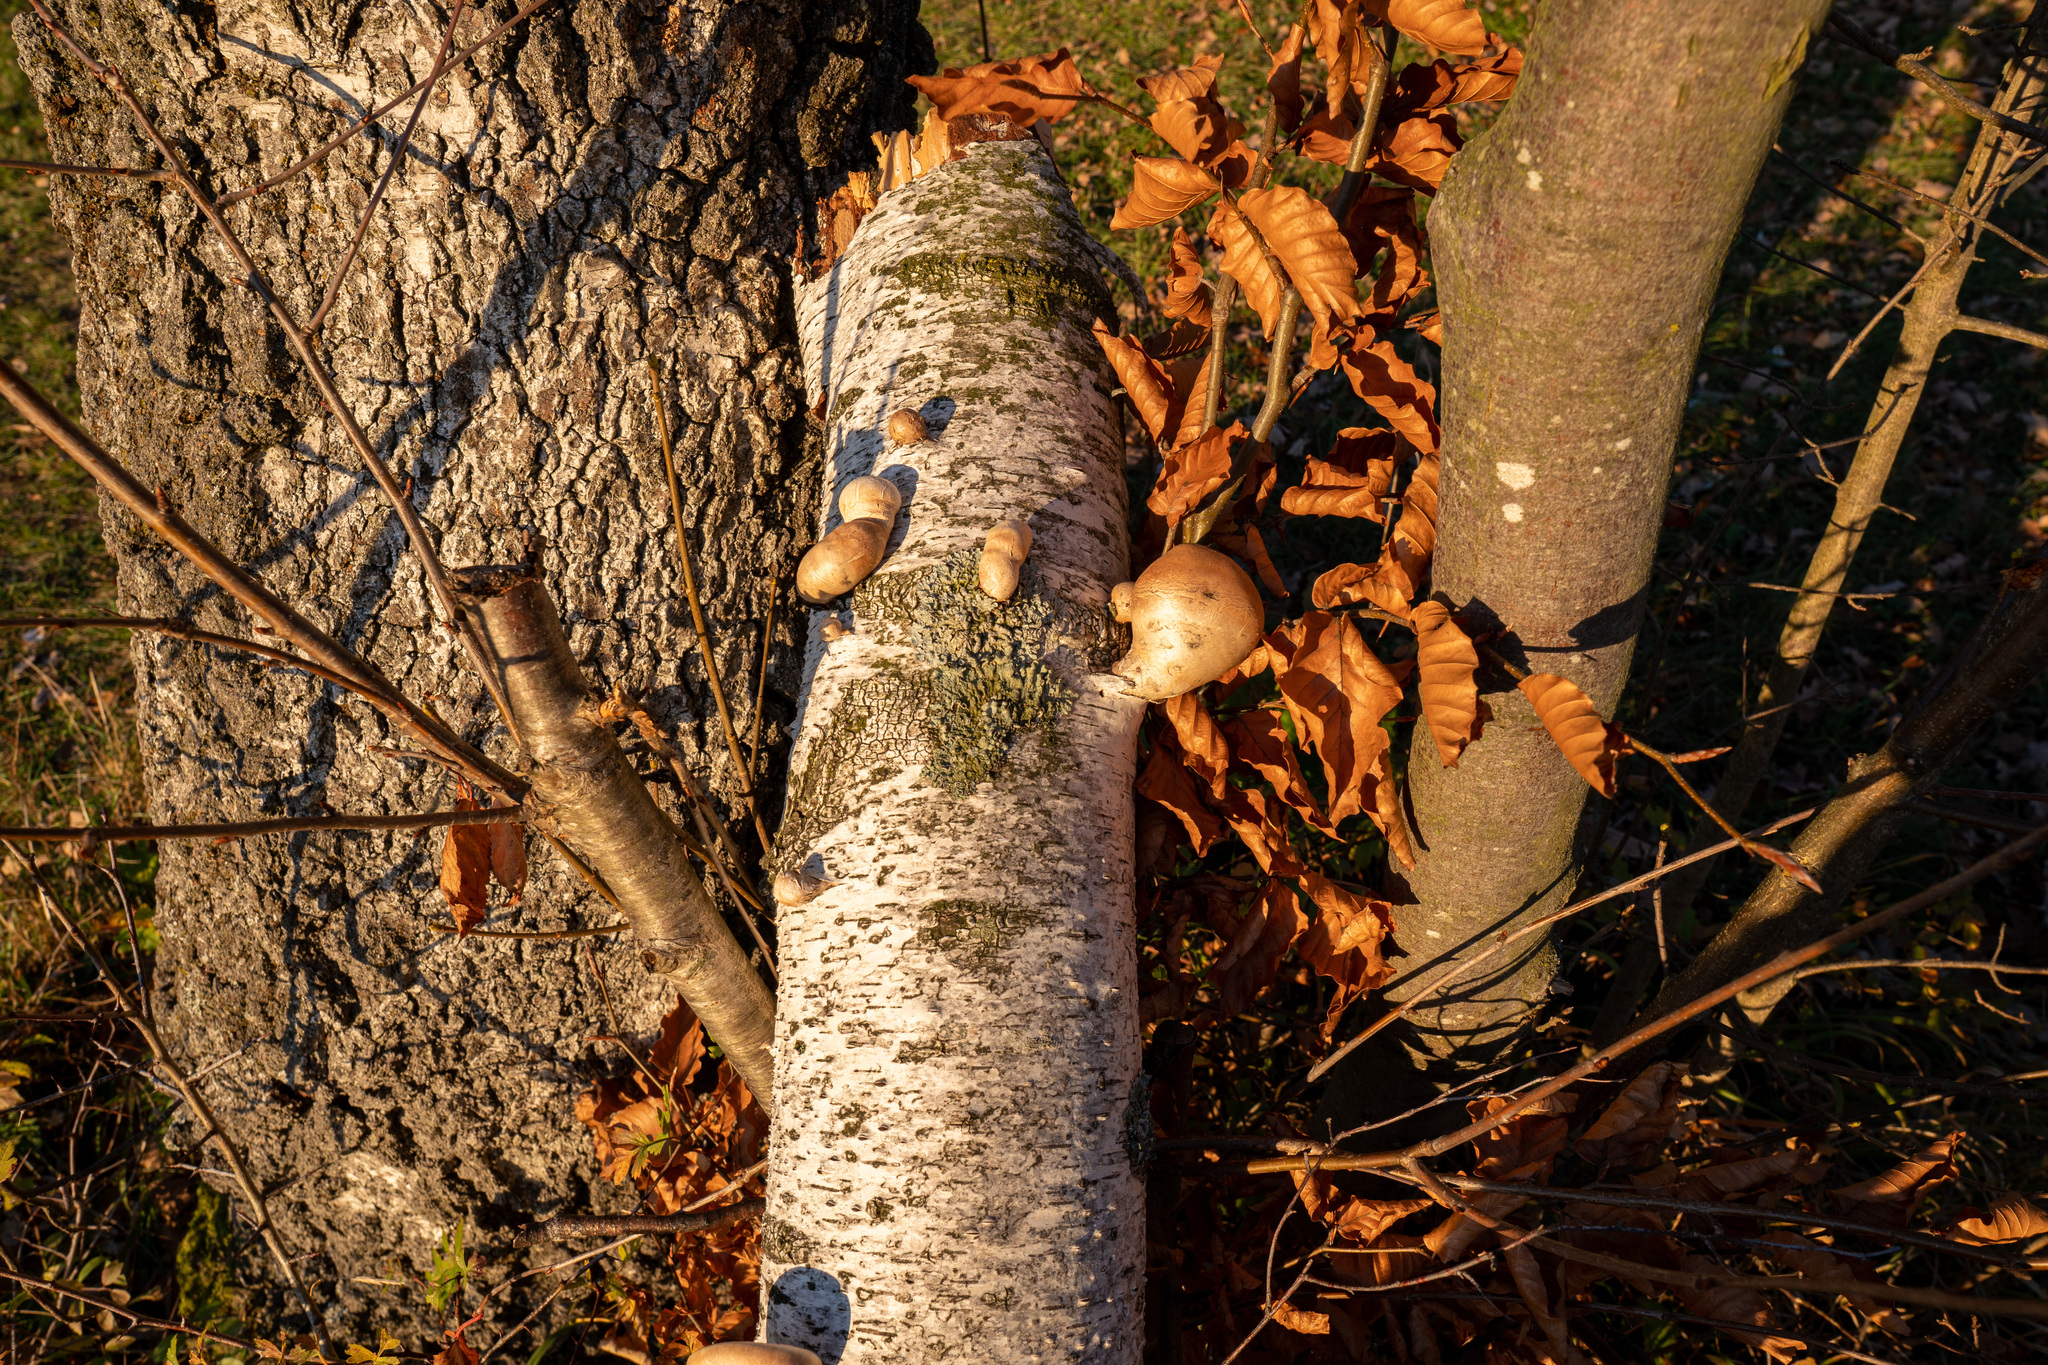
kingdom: Fungi
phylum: Basidiomycota
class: Agaricomycetes
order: Polyporales
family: Fomitopsidaceae
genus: Fomitopsis
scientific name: Fomitopsis betulina
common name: Birch polypore
